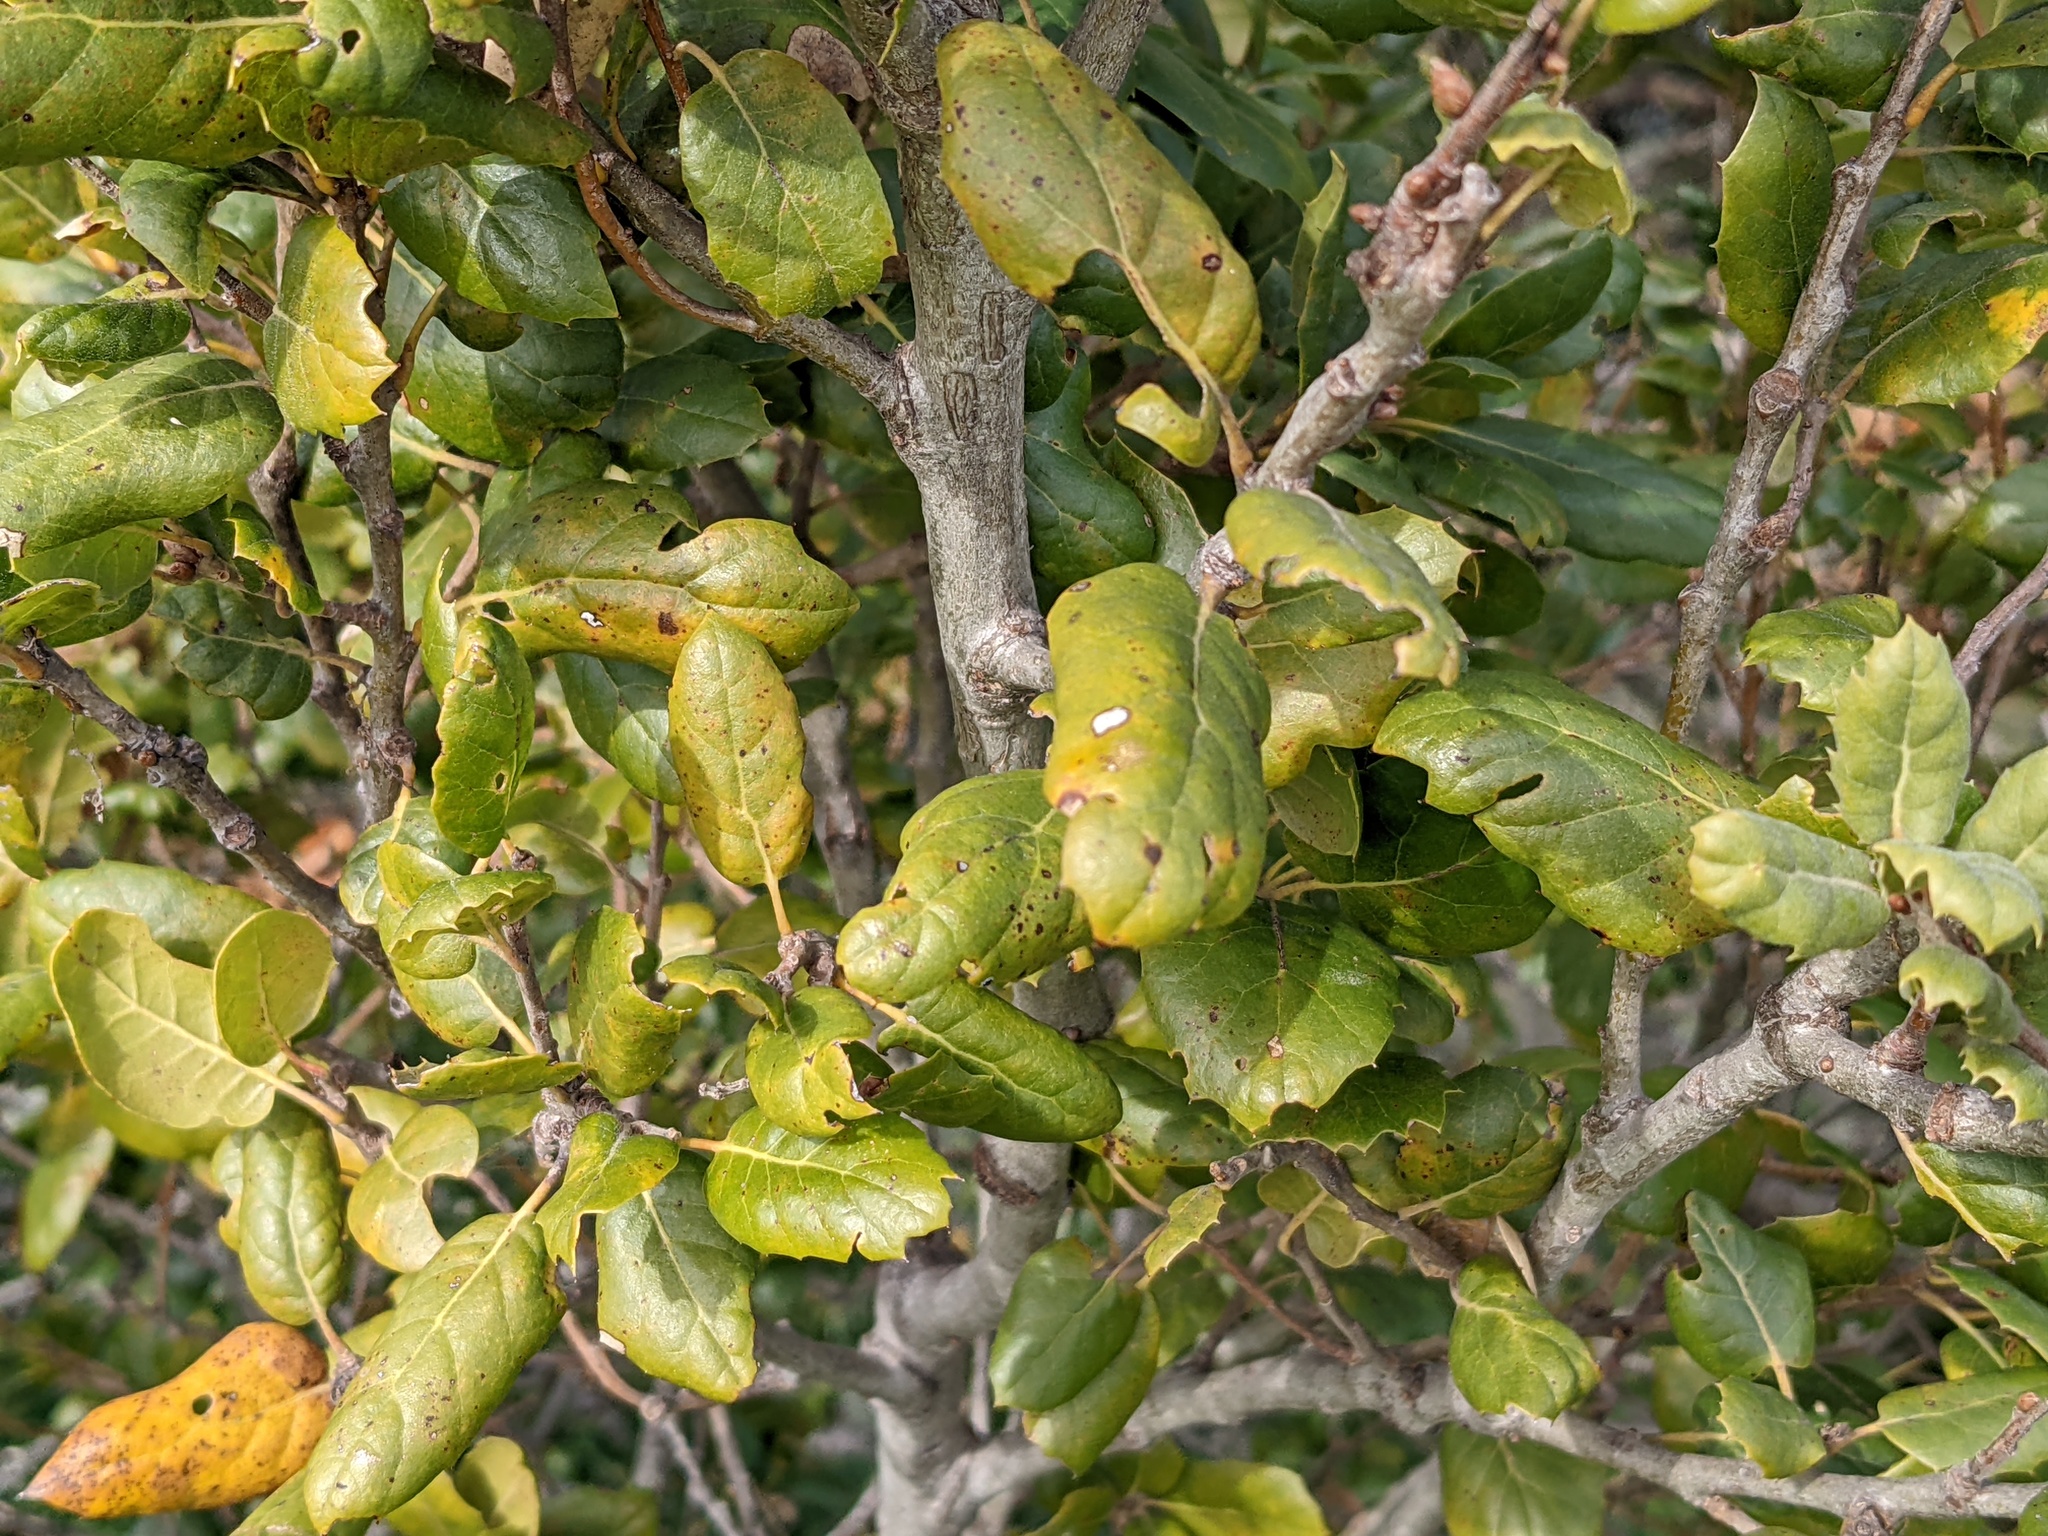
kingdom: Plantae
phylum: Tracheophyta
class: Magnoliopsida
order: Fagales
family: Fagaceae
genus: Quercus
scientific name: Quercus agrifolia
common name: California live oak
